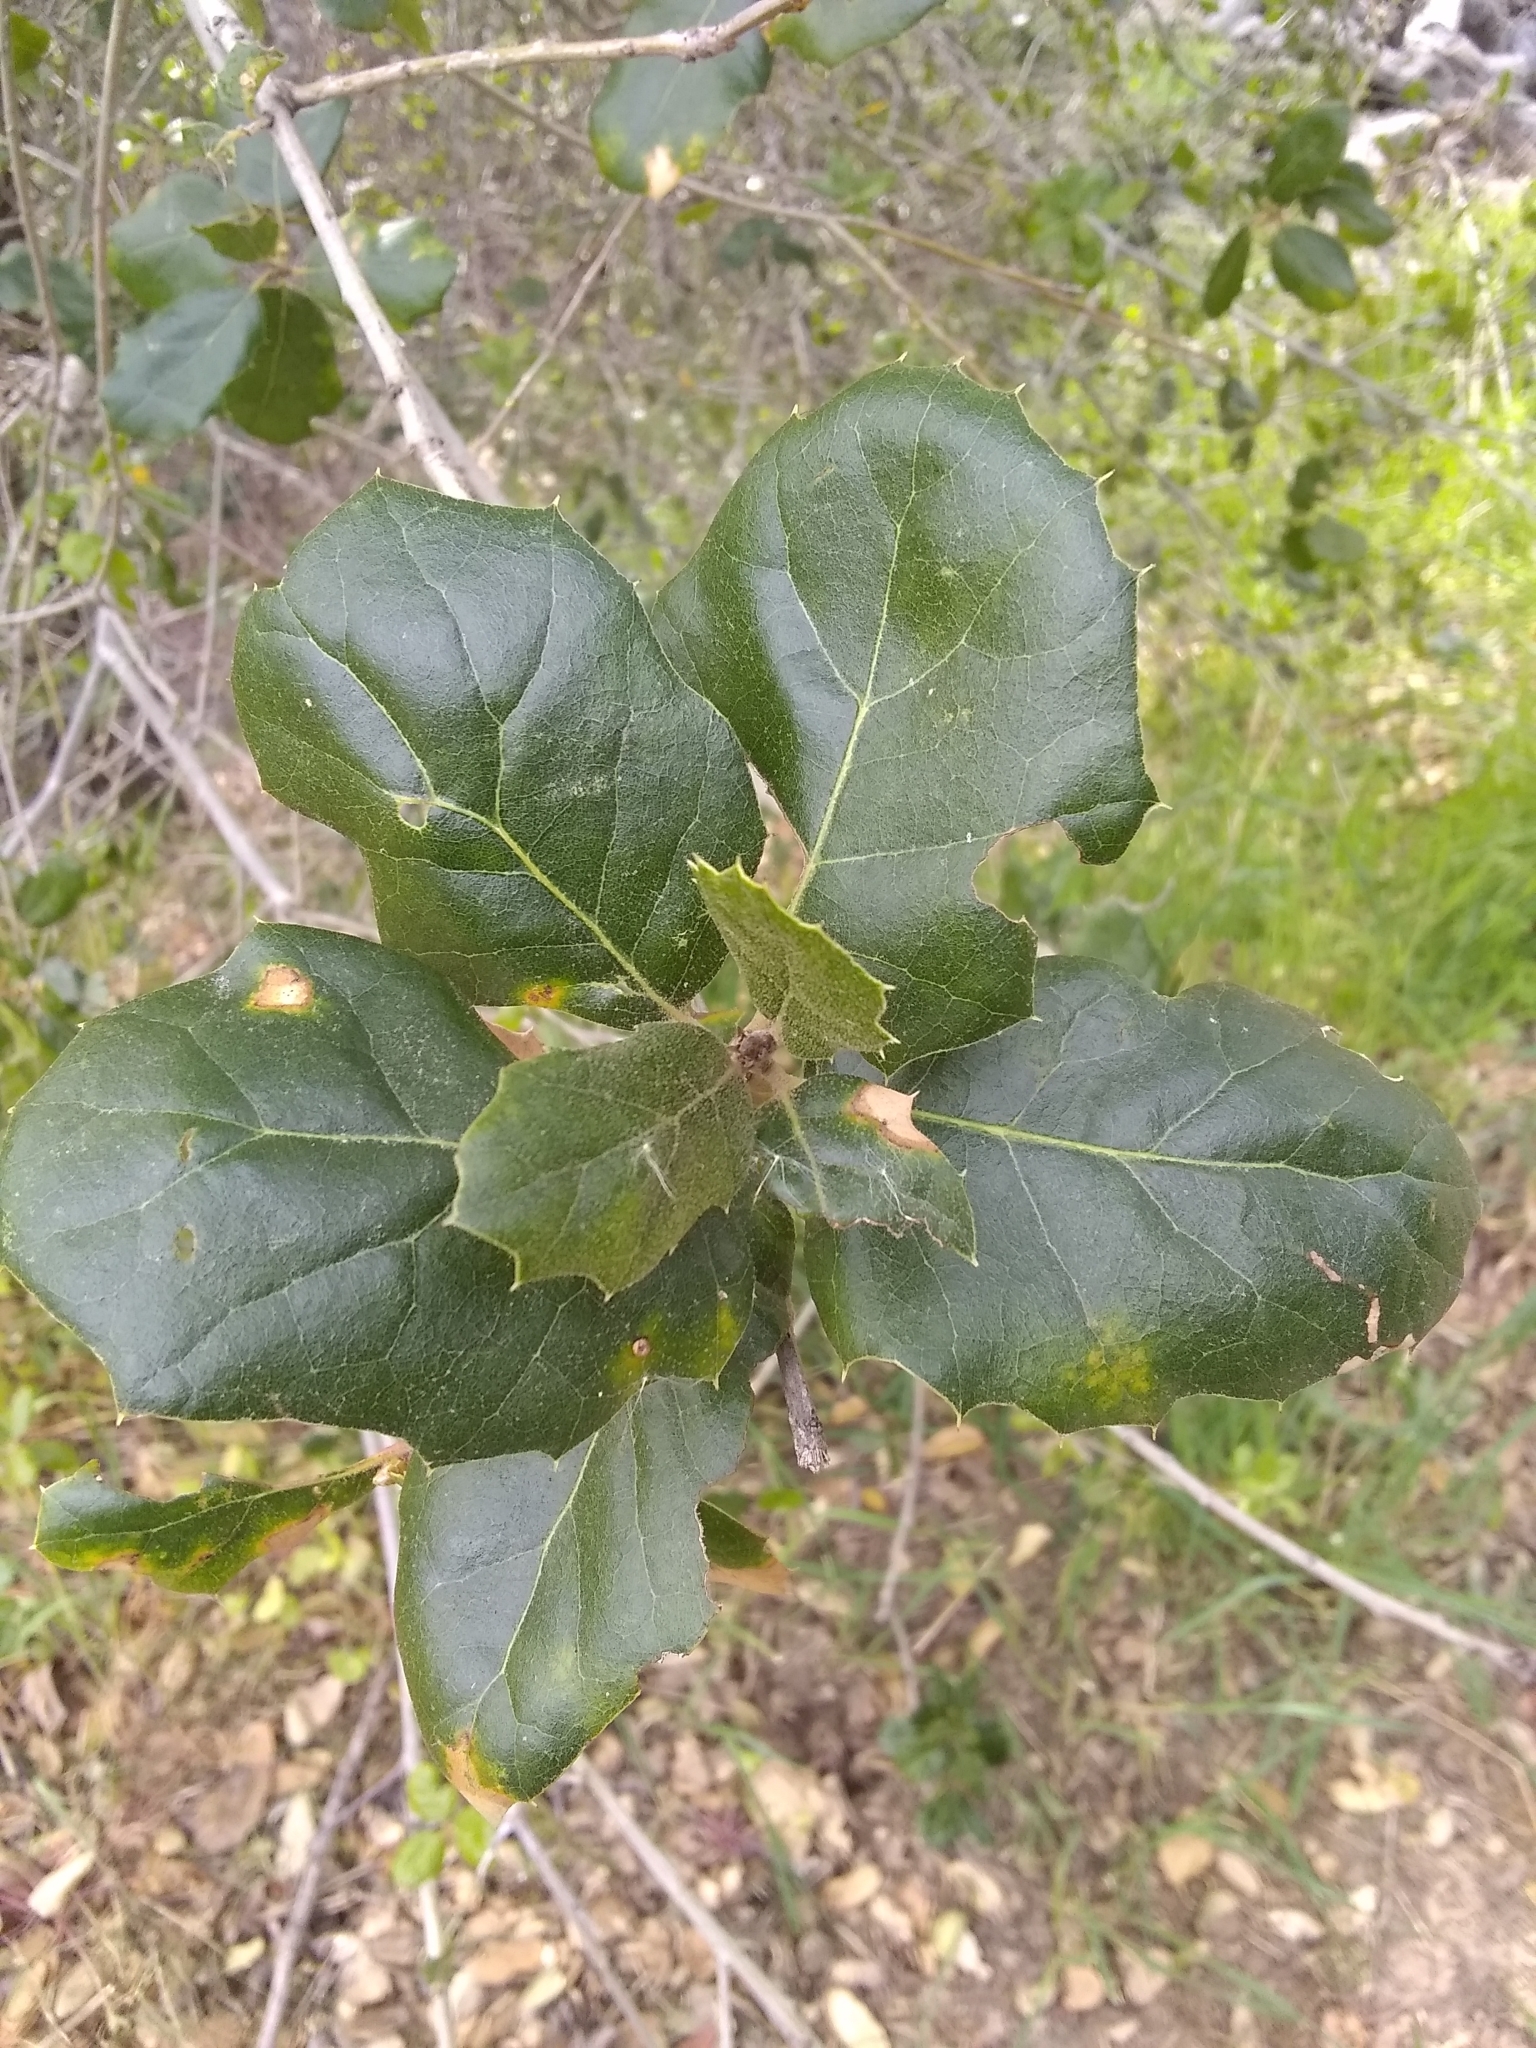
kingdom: Plantae
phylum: Tracheophyta
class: Magnoliopsida
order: Fagales
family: Fagaceae
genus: Quercus
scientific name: Quercus agrifolia
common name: California live oak
